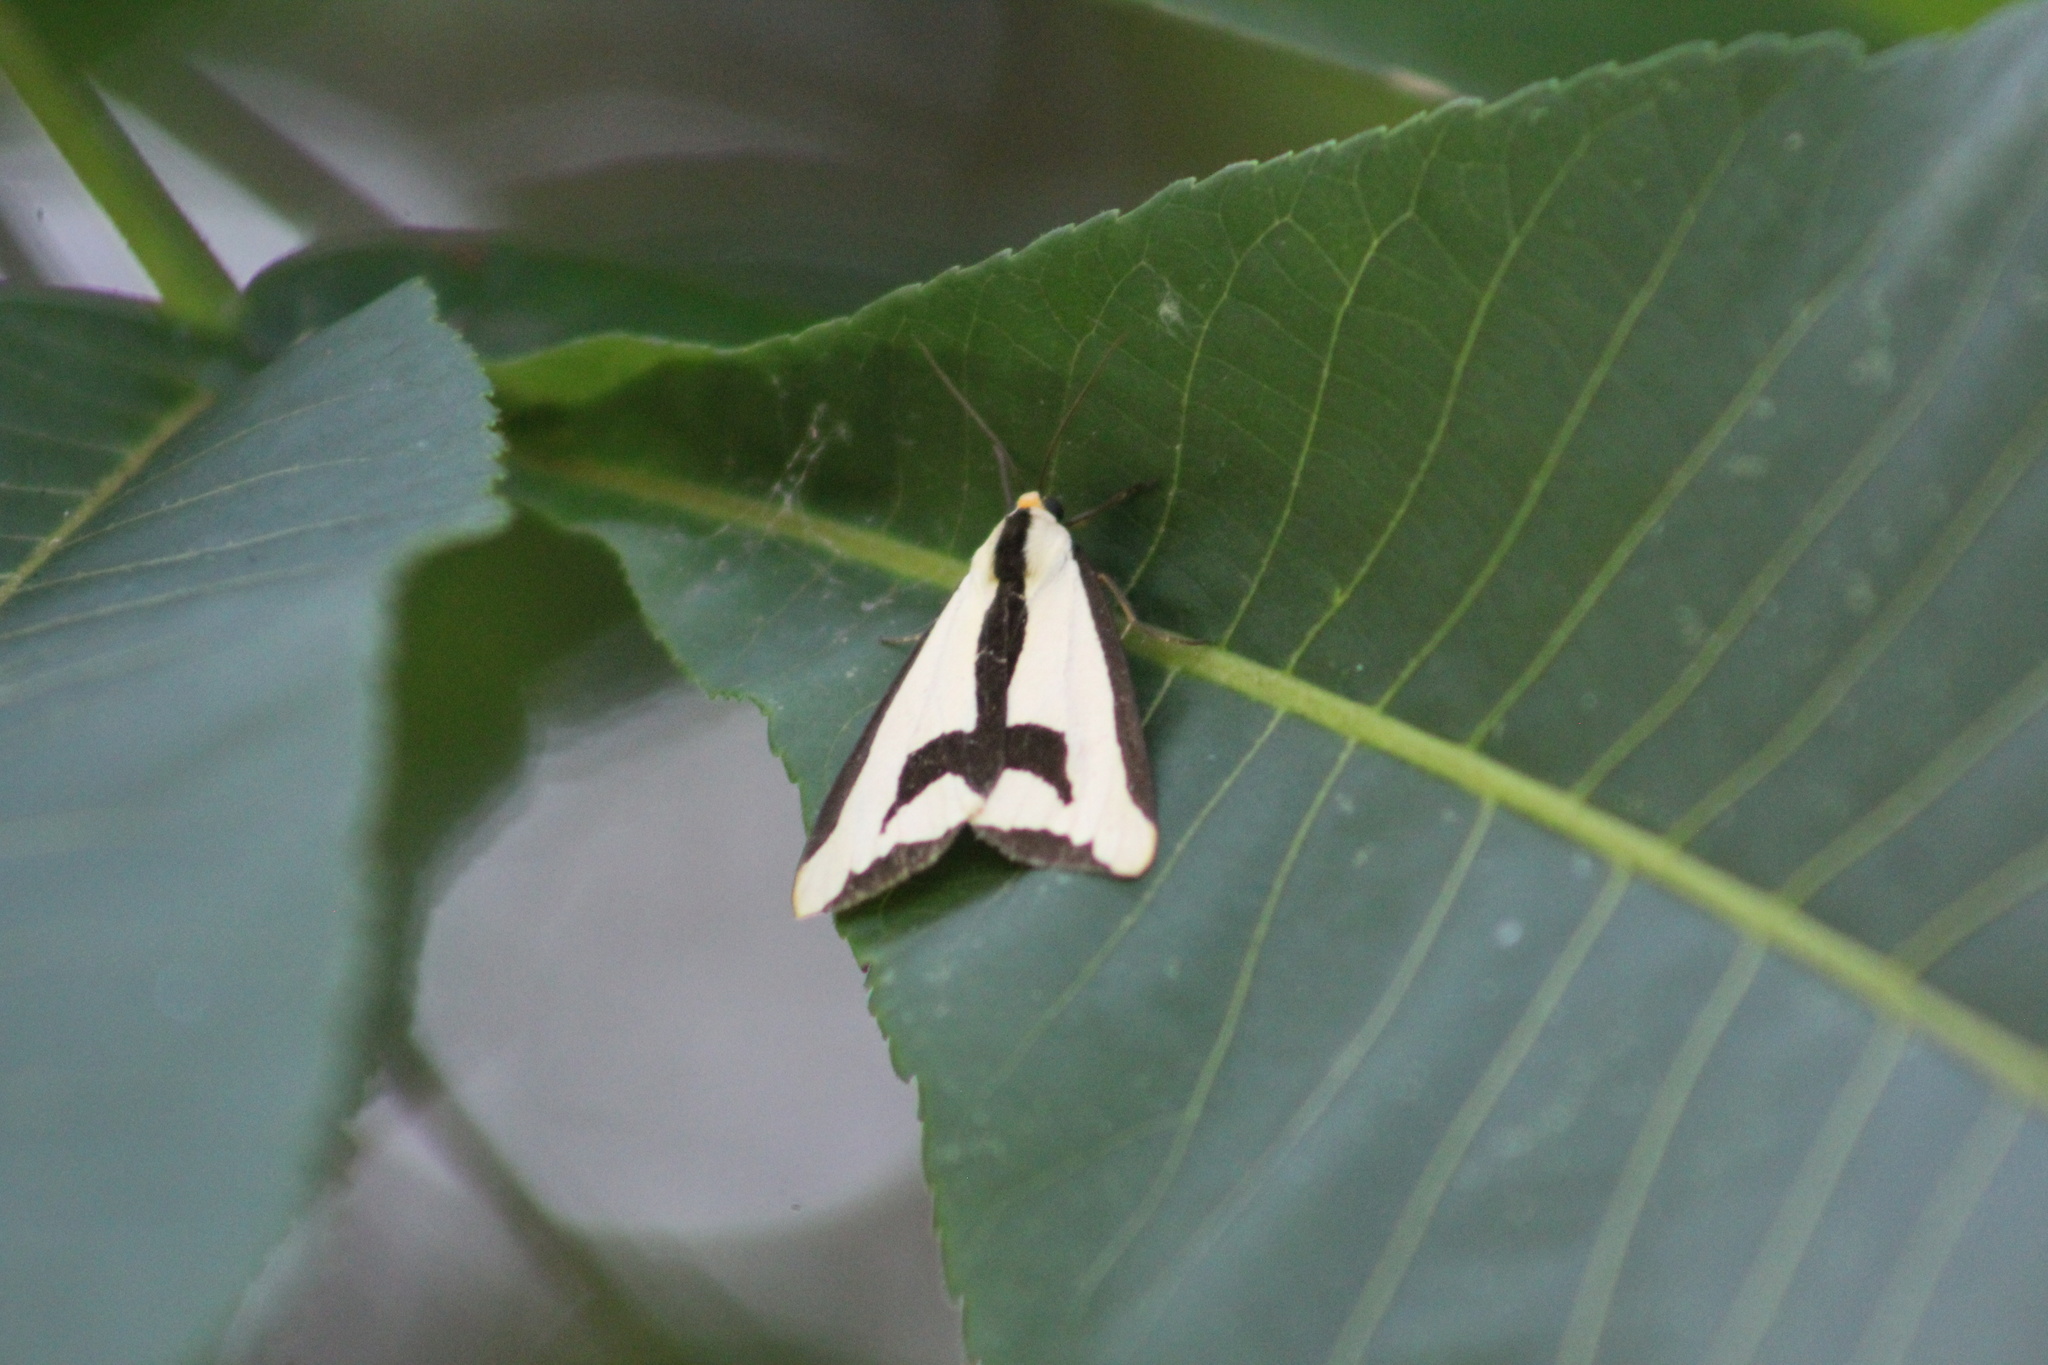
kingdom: Animalia
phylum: Arthropoda
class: Insecta
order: Lepidoptera
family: Erebidae
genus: Haploa
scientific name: Haploa clymene
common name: Clymene moth
